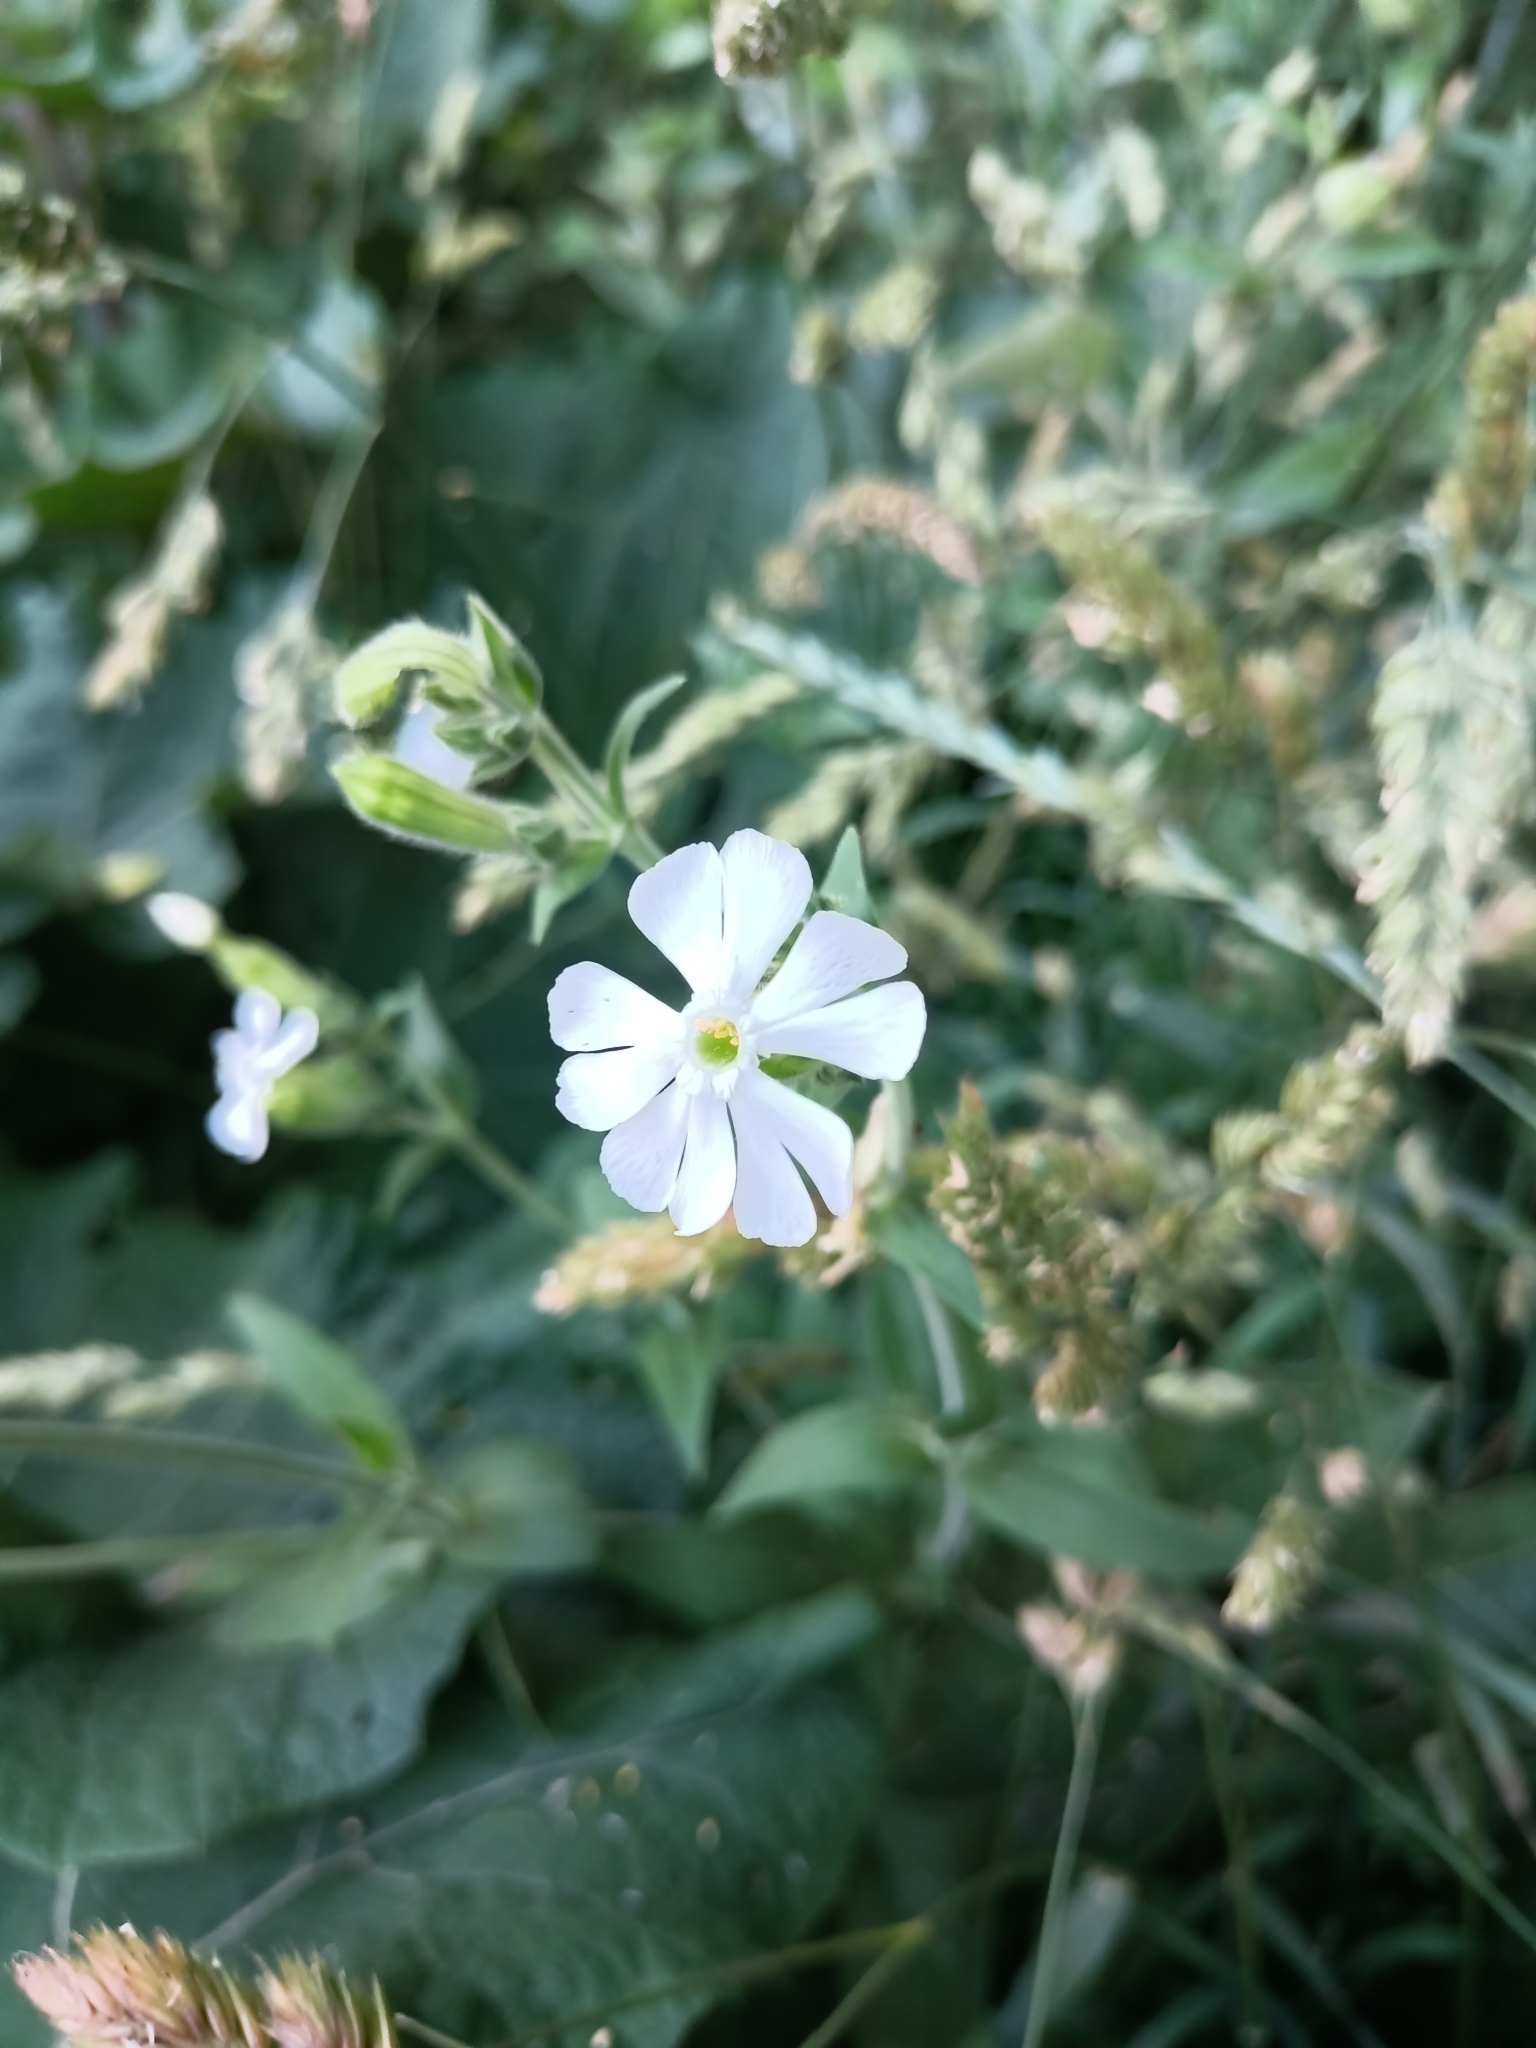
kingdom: Plantae
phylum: Tracheophyta
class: Magnoliopsida
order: Caryophyllales
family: Caryophyllaceae
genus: Silene
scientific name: Silene latifolia
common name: White campion
